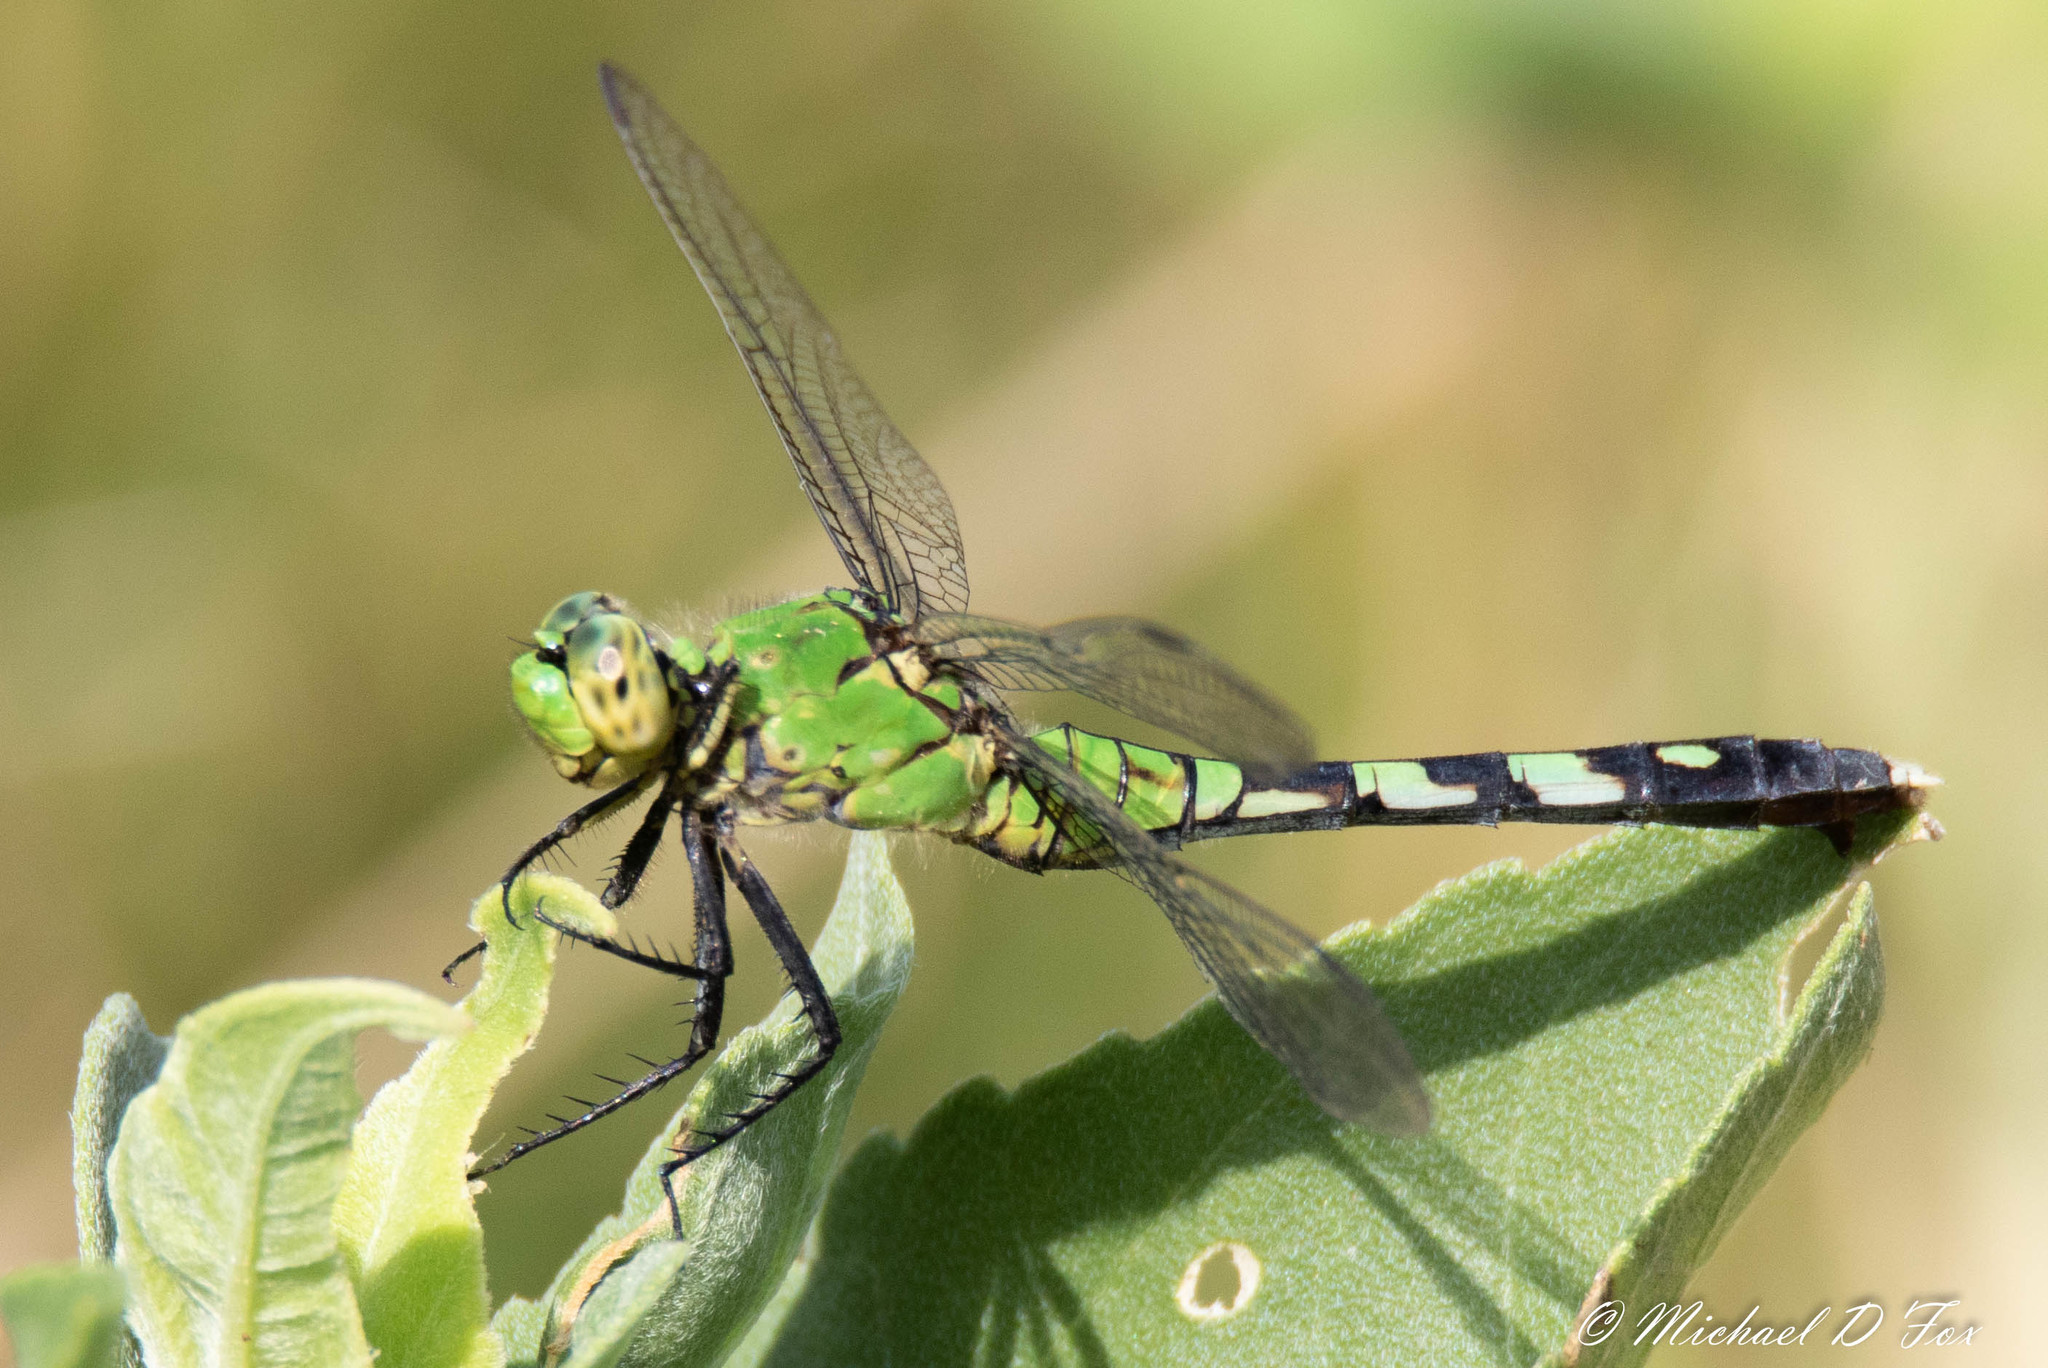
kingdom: Animalia
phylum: Arthropoda
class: Insecta
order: Odonata
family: Libellulidae
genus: Erythemis
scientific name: Erythemis simplicicollis
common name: Eastern pondhawk
